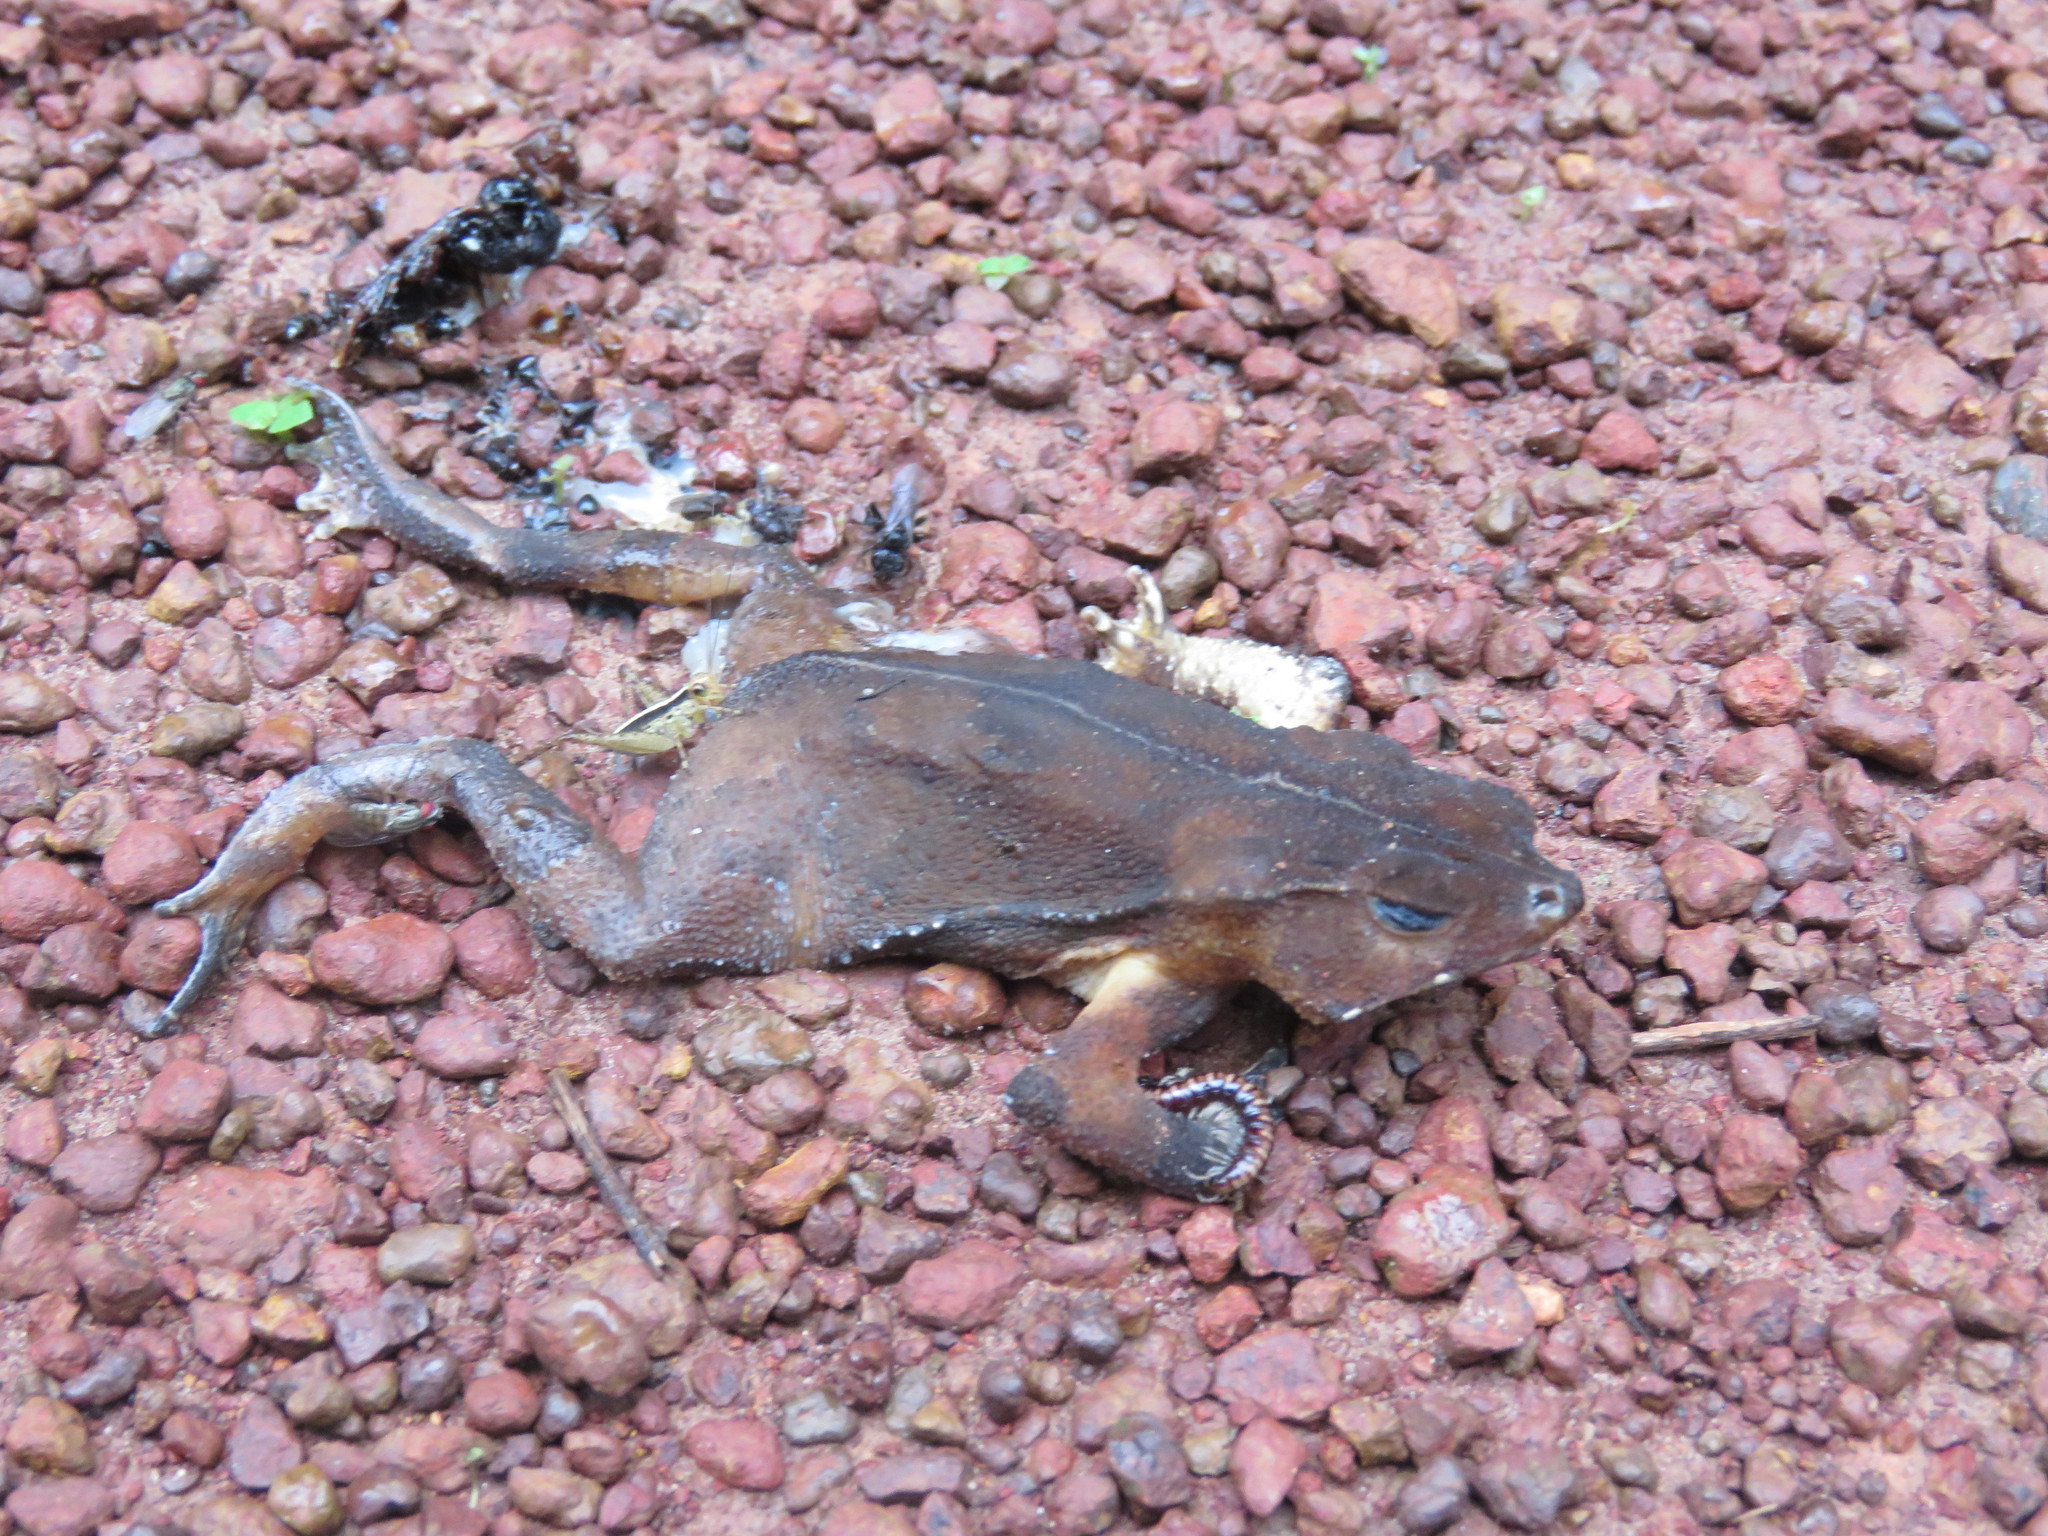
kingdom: Animalia
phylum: Chordata
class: Amphibia
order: Anura
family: Bufonidae
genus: Rhinella
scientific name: Rhinella castaneotica
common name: Para toad
